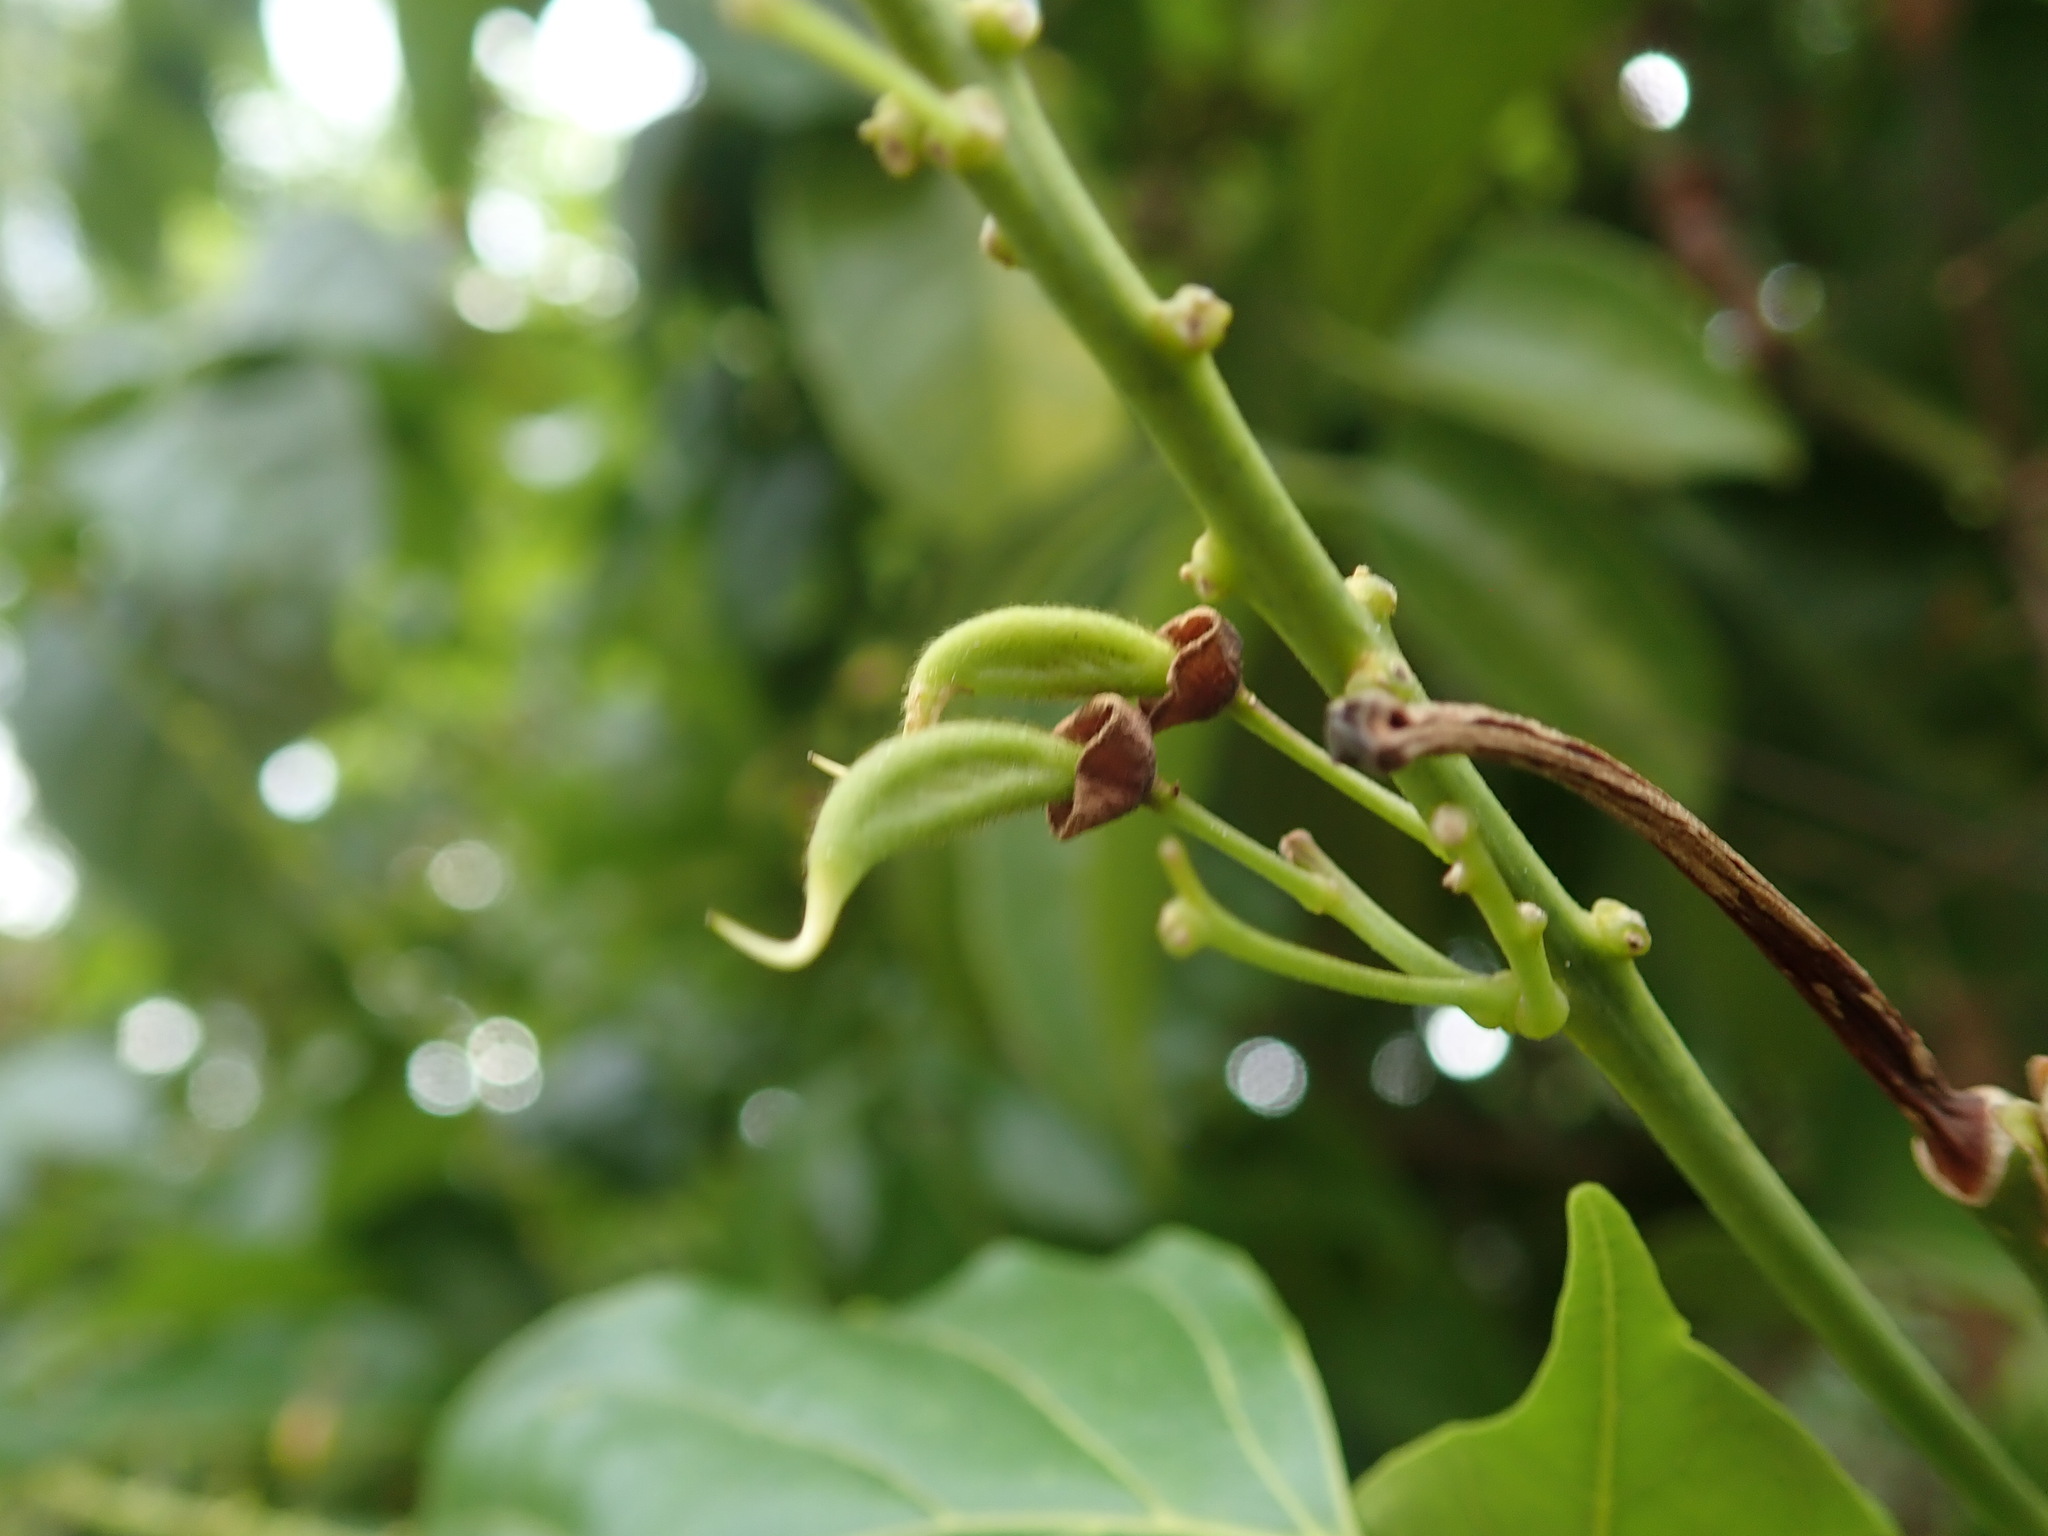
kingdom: Plantae
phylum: Tracheophyta
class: Magnoliopsida
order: Fabales
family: Fabaceae
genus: Pongamia
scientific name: Pongamia pinnata
